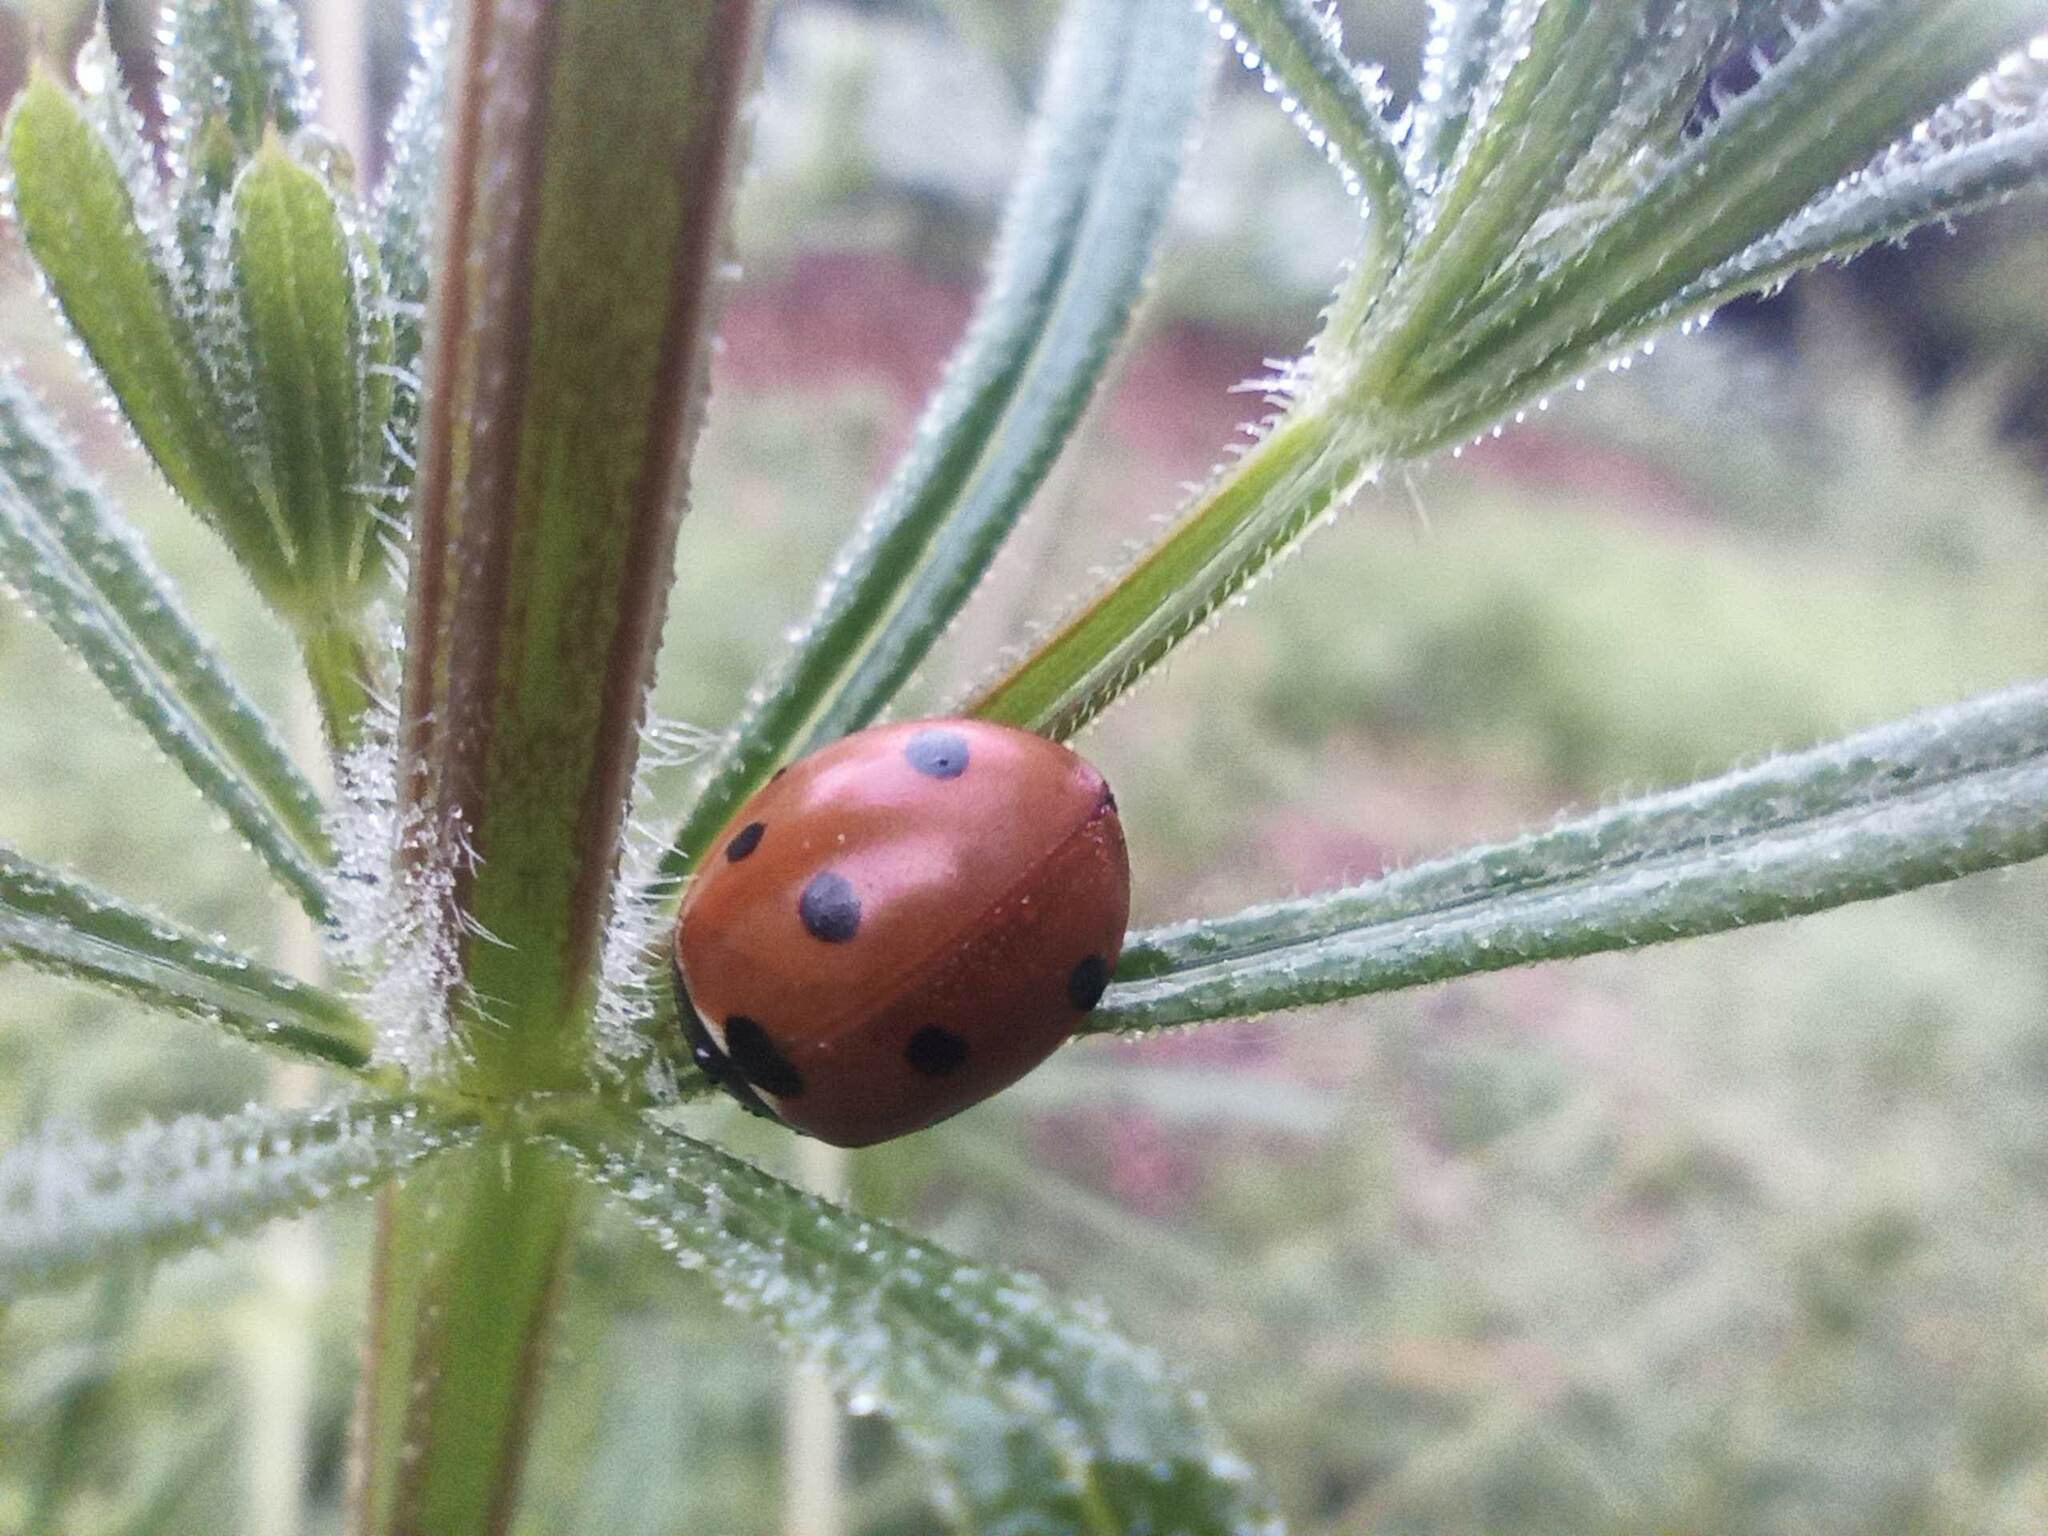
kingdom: Animalia
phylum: Arthropoda
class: Insecta
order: Coleoptera
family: Coccinellidae
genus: Coccinella
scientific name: Coccinella septempunctata
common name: Sevenspotted lady beetle
